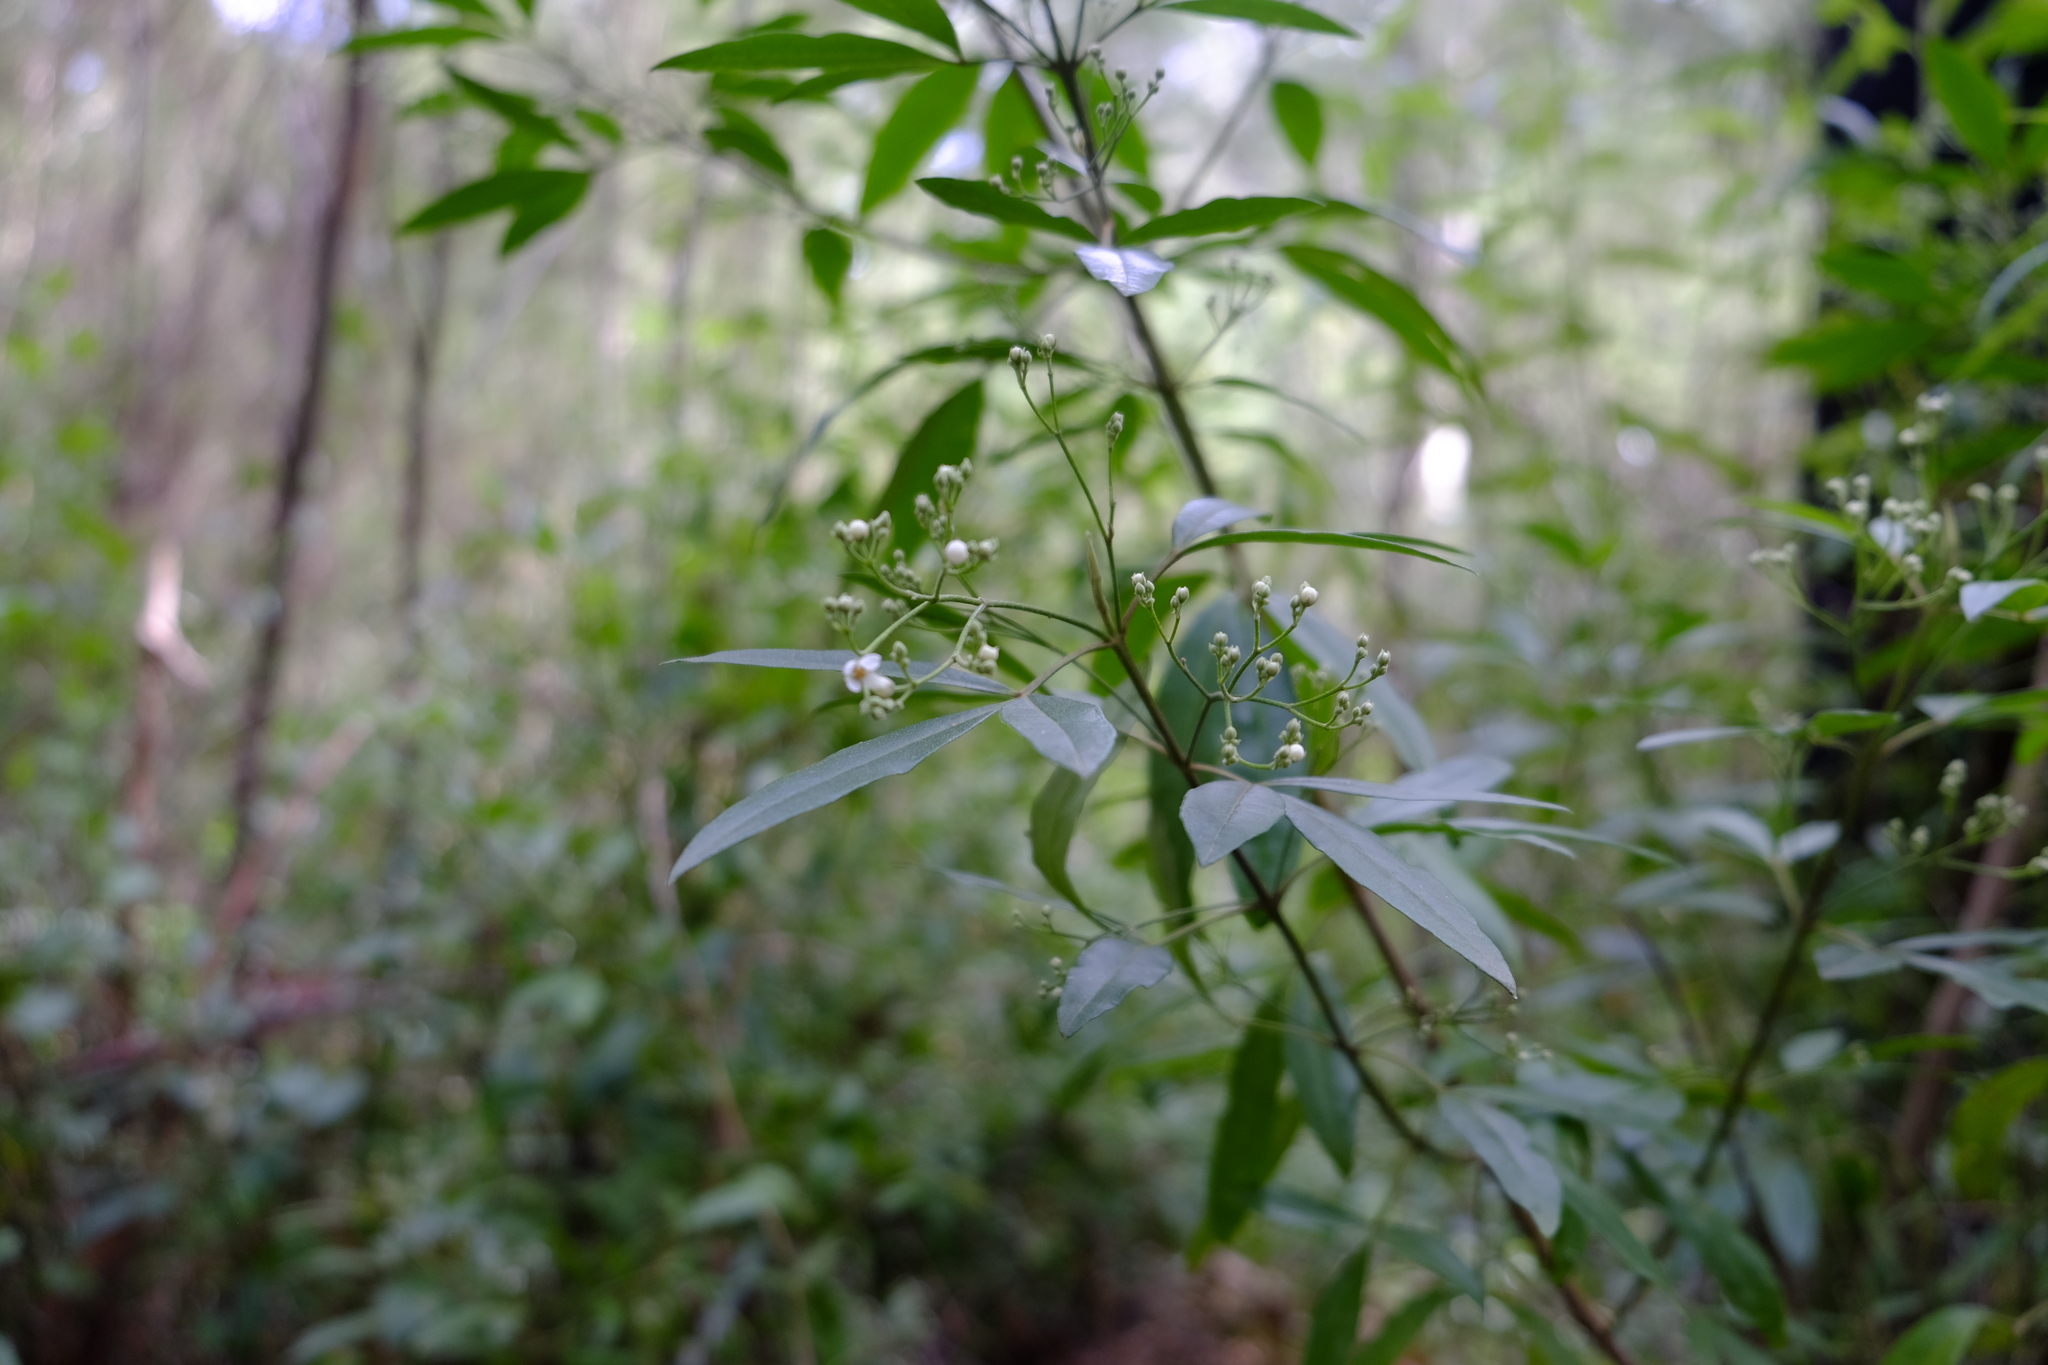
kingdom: Plantae
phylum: Tracheophyta
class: Magnoliopsida
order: Sapindales
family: Rutaceae
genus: Zieria
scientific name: Zieria arborescens
